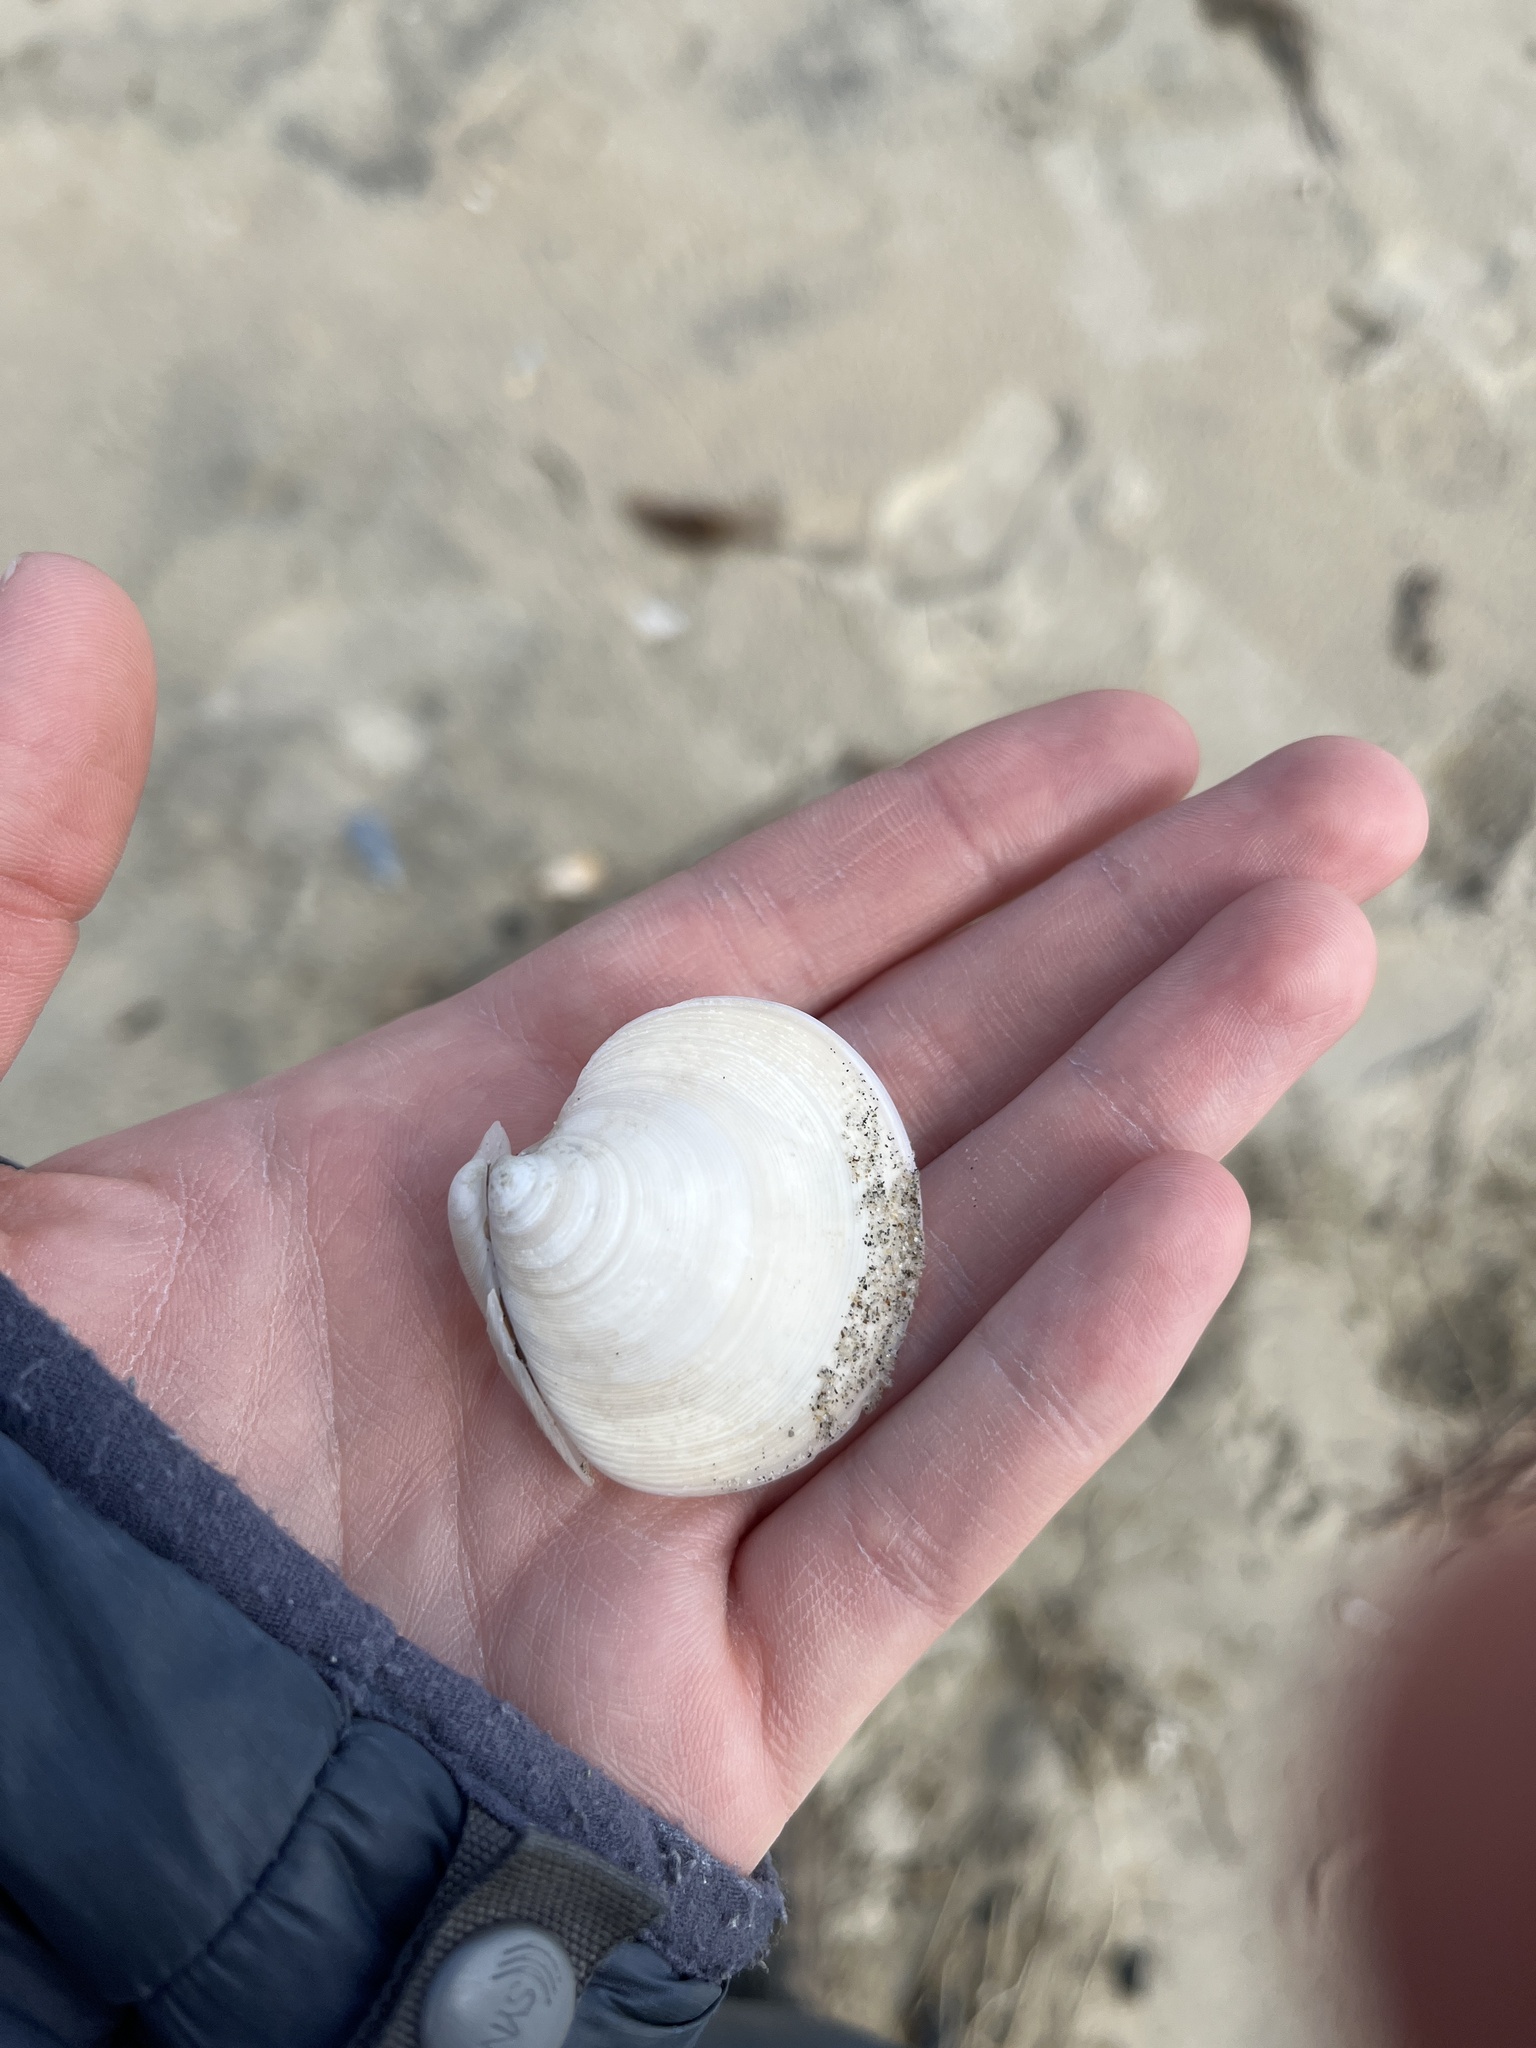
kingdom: Animalia
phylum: Mollusca
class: Bivalvia
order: Venerida
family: Veneridae
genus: Dosinia
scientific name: Dosinia discus
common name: Disk dosinia
